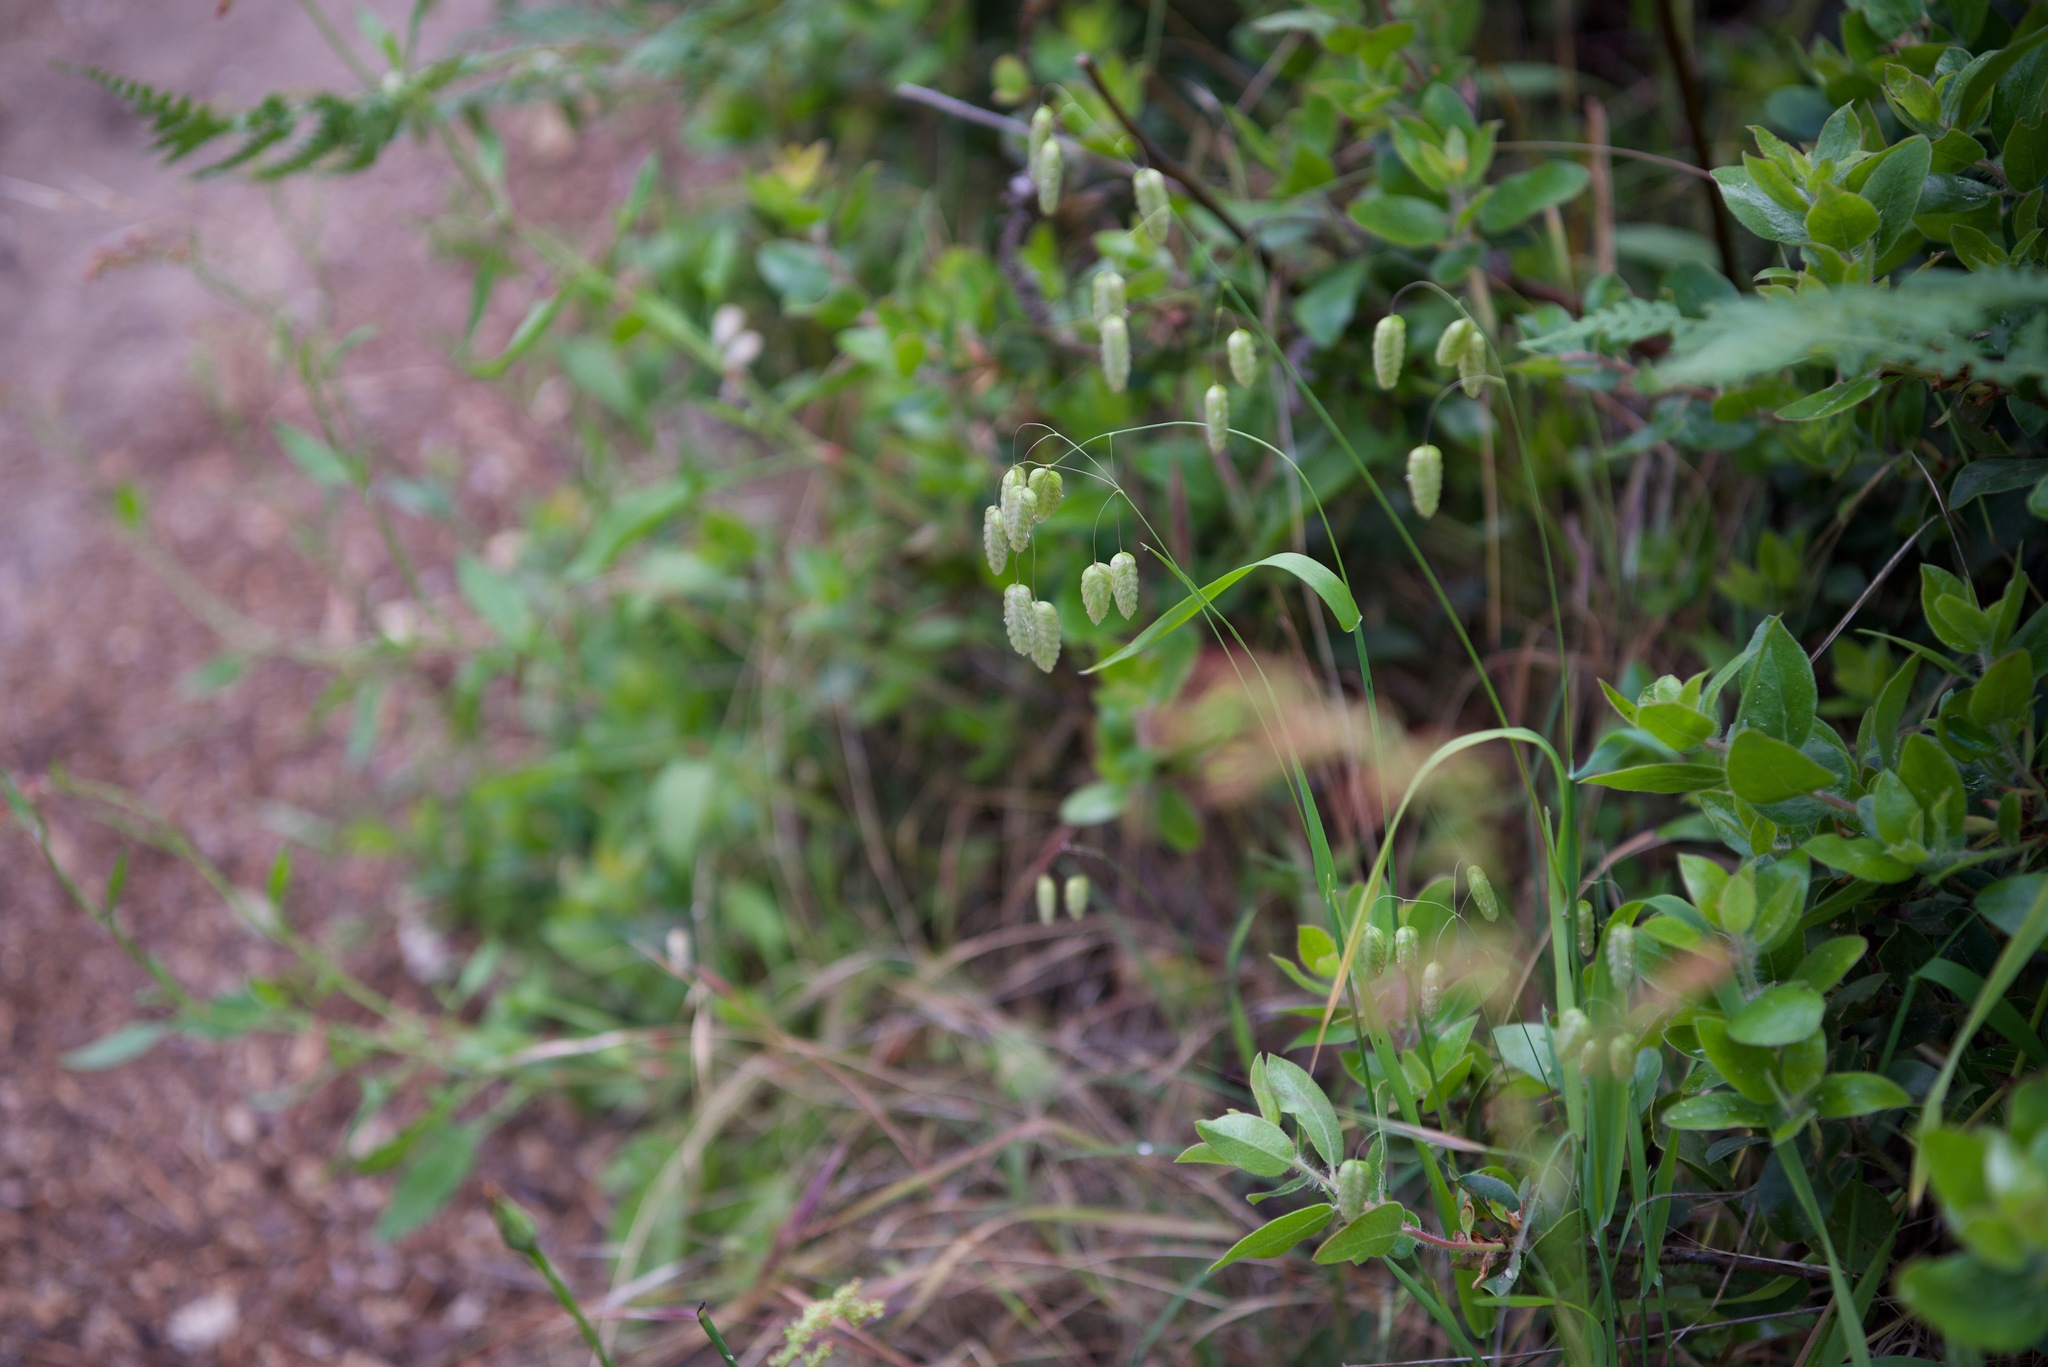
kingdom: Plantae
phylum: Tracheophyta
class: Liliopsida
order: Poales
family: Poaceae
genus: Briza
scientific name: Briza maxima
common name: Big quakinggrass
